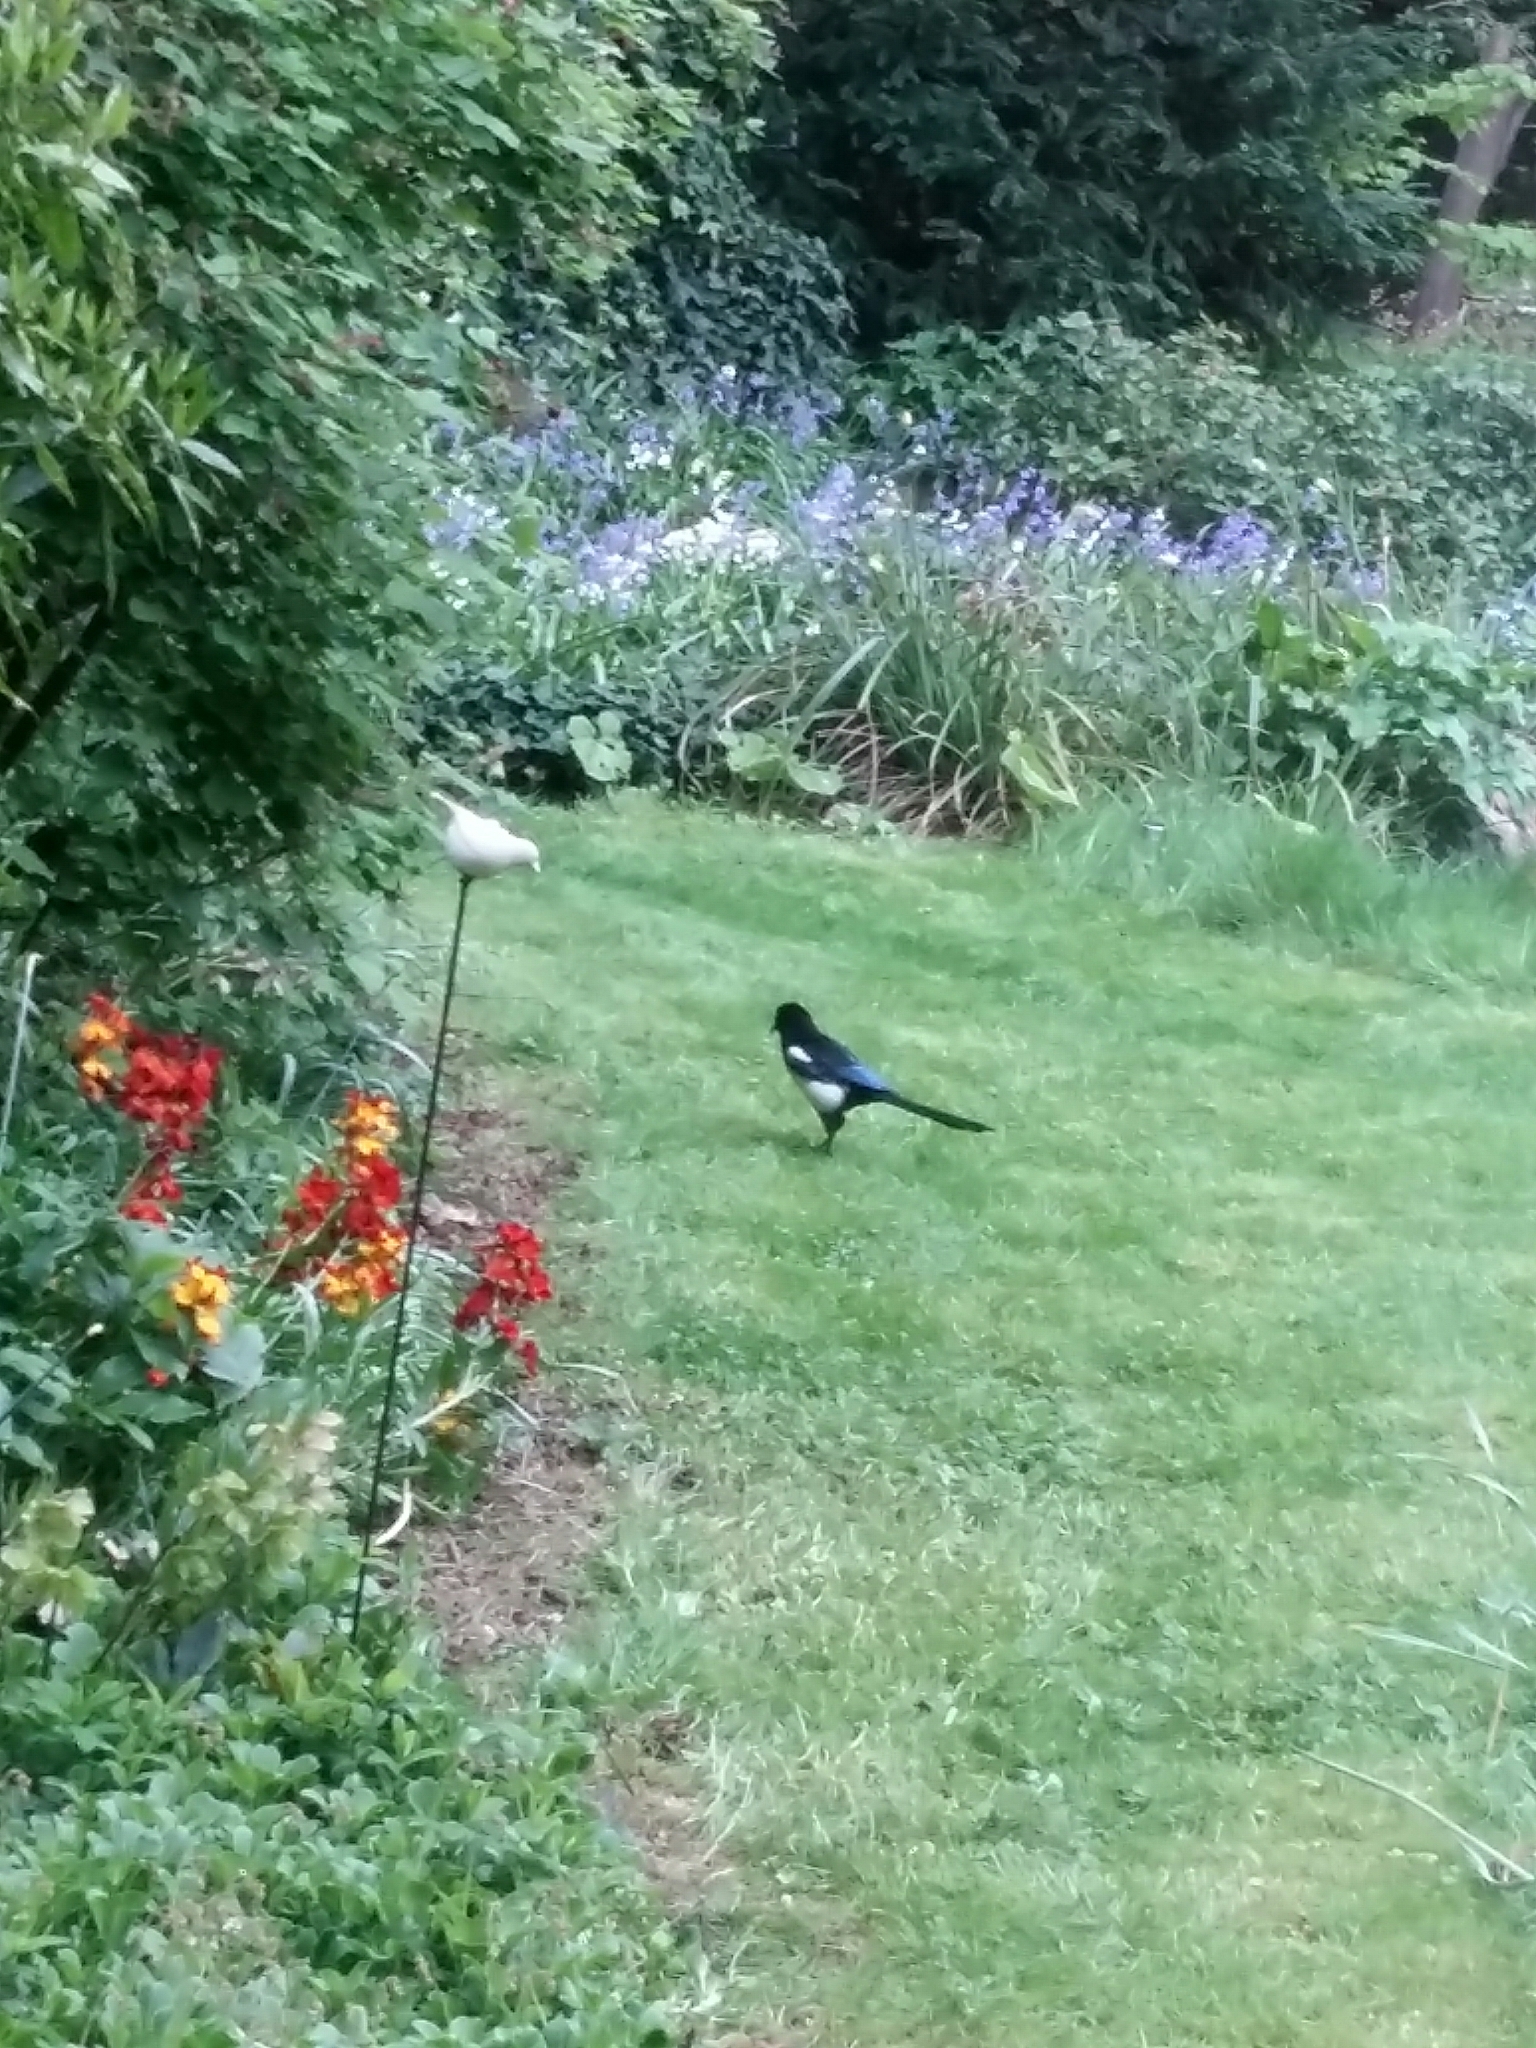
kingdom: Animalia
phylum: Chordata
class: Aves
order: Passeriformes
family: Corvidae
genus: Pica
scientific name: Pica pica
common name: Eurasian magpie
